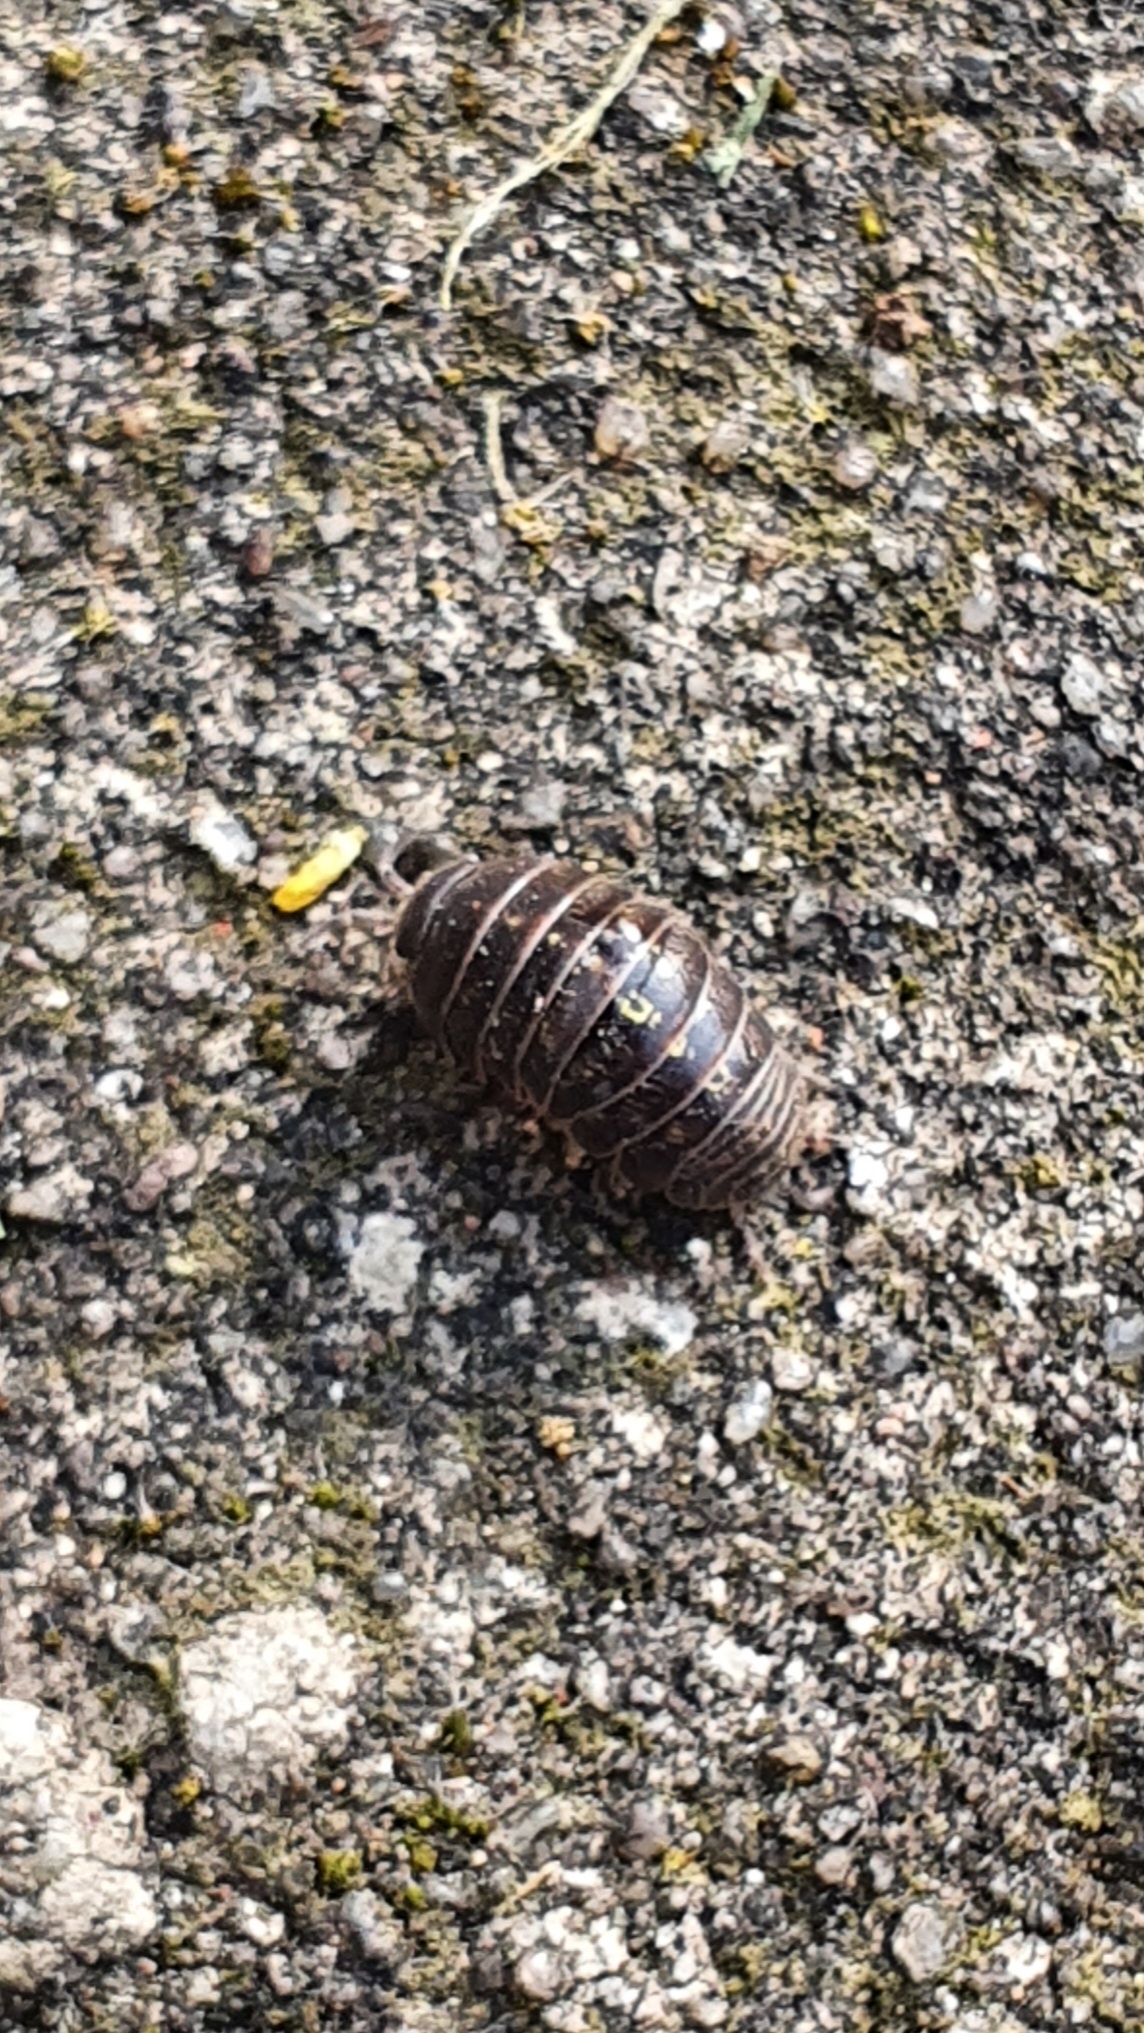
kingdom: Animalia
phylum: Arthropoda
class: Malacostraca
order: Isopoda
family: Armadillidiidae
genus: Armadillidium
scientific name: Armadillidium vulgare
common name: Common pill woodlouse
